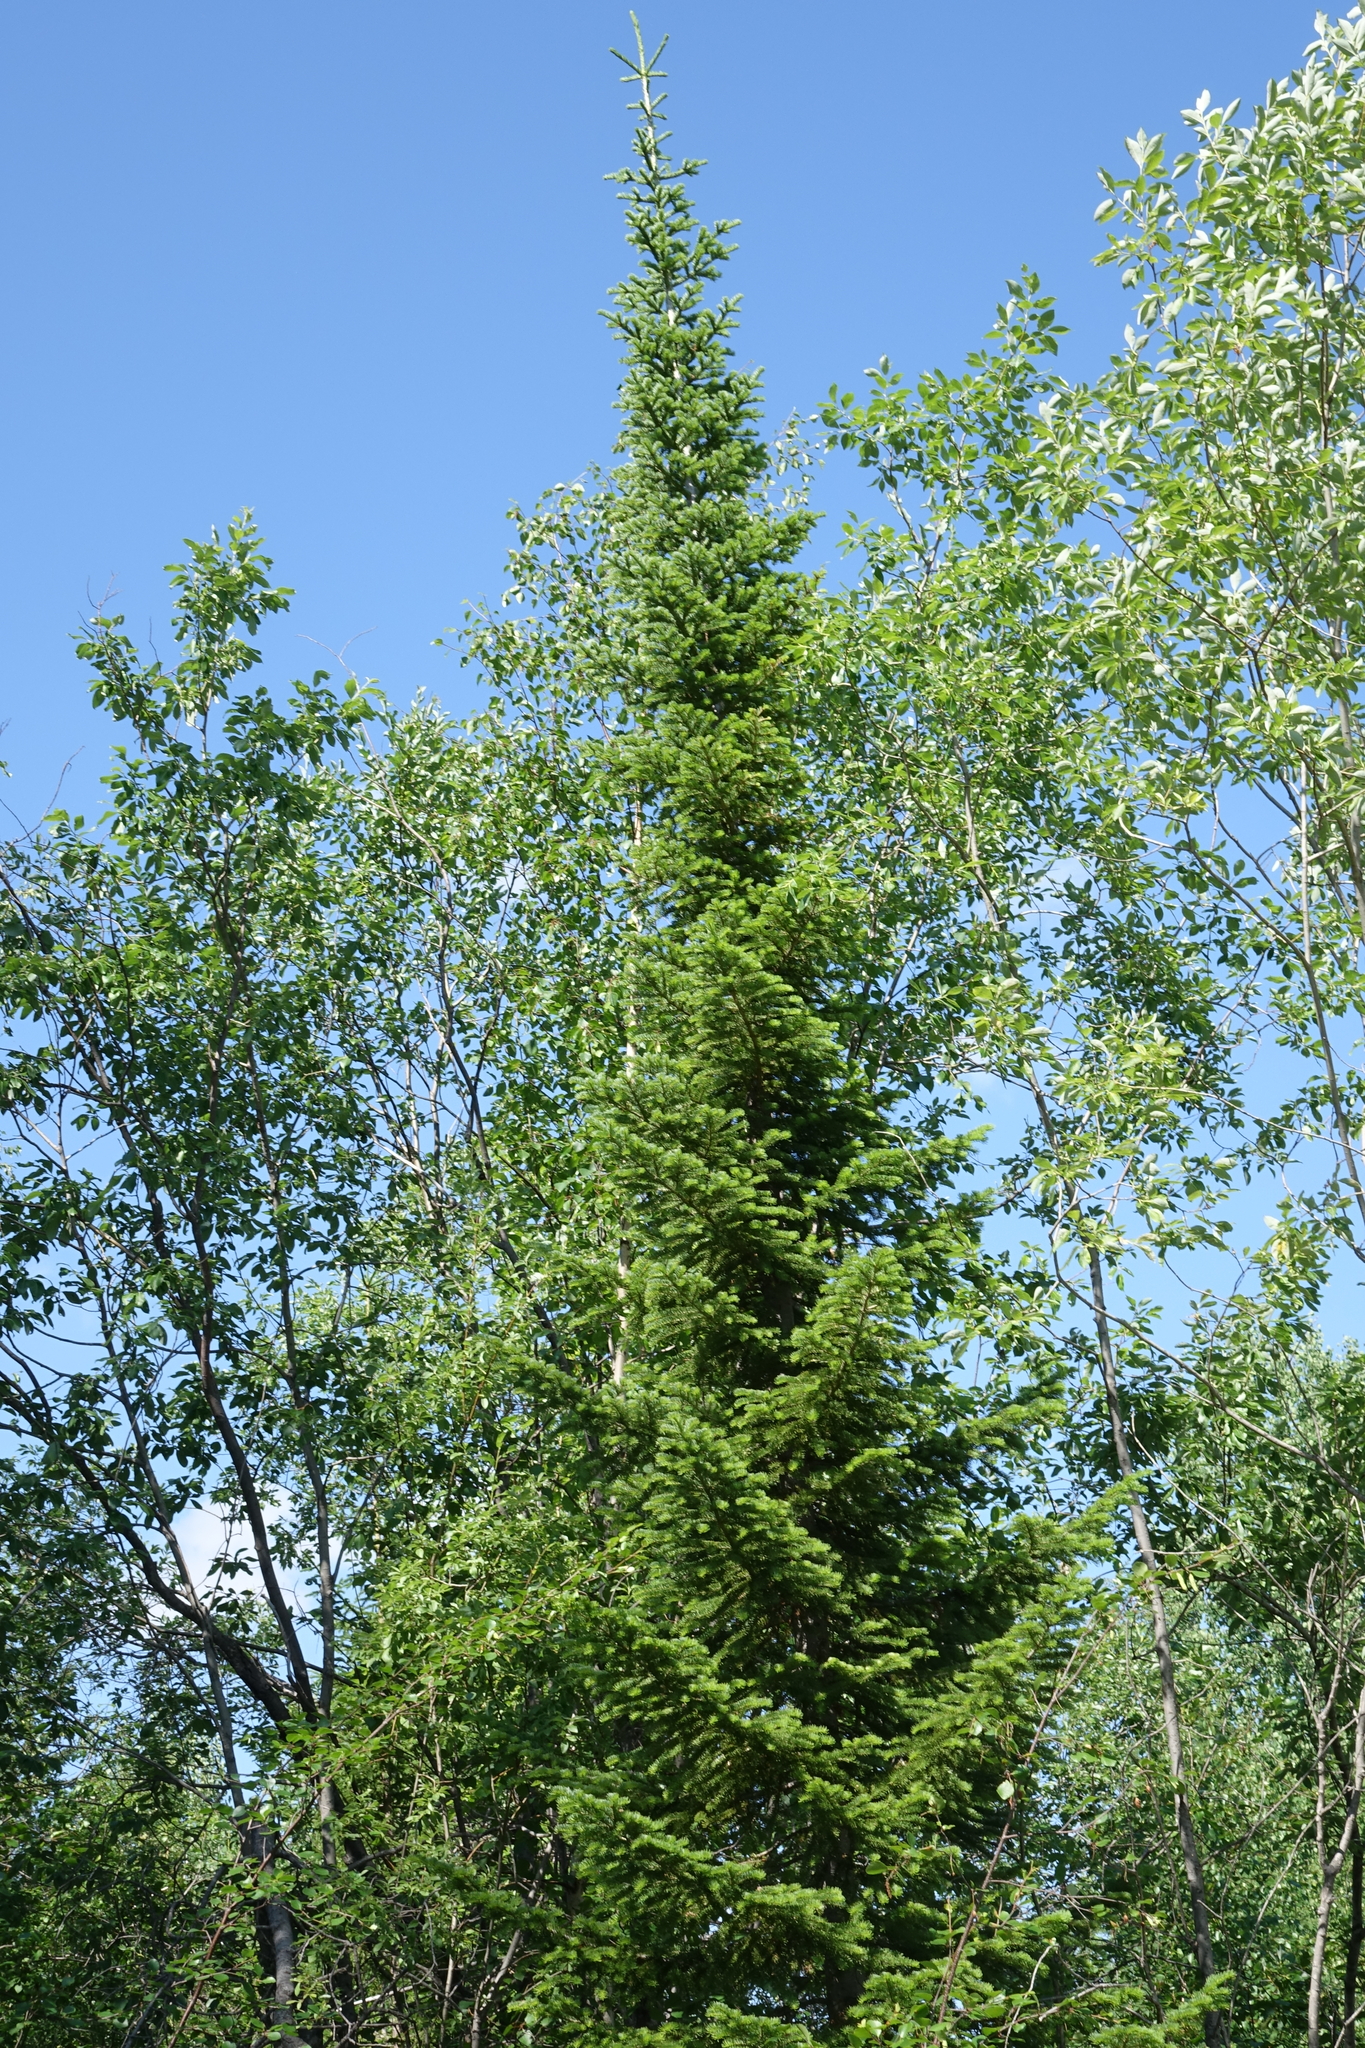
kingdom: Plantae
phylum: Tracheophyta
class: Pinopsida
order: Pinales
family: Pinaceae
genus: Abies
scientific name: Abies sibirica
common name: Siberian fir
